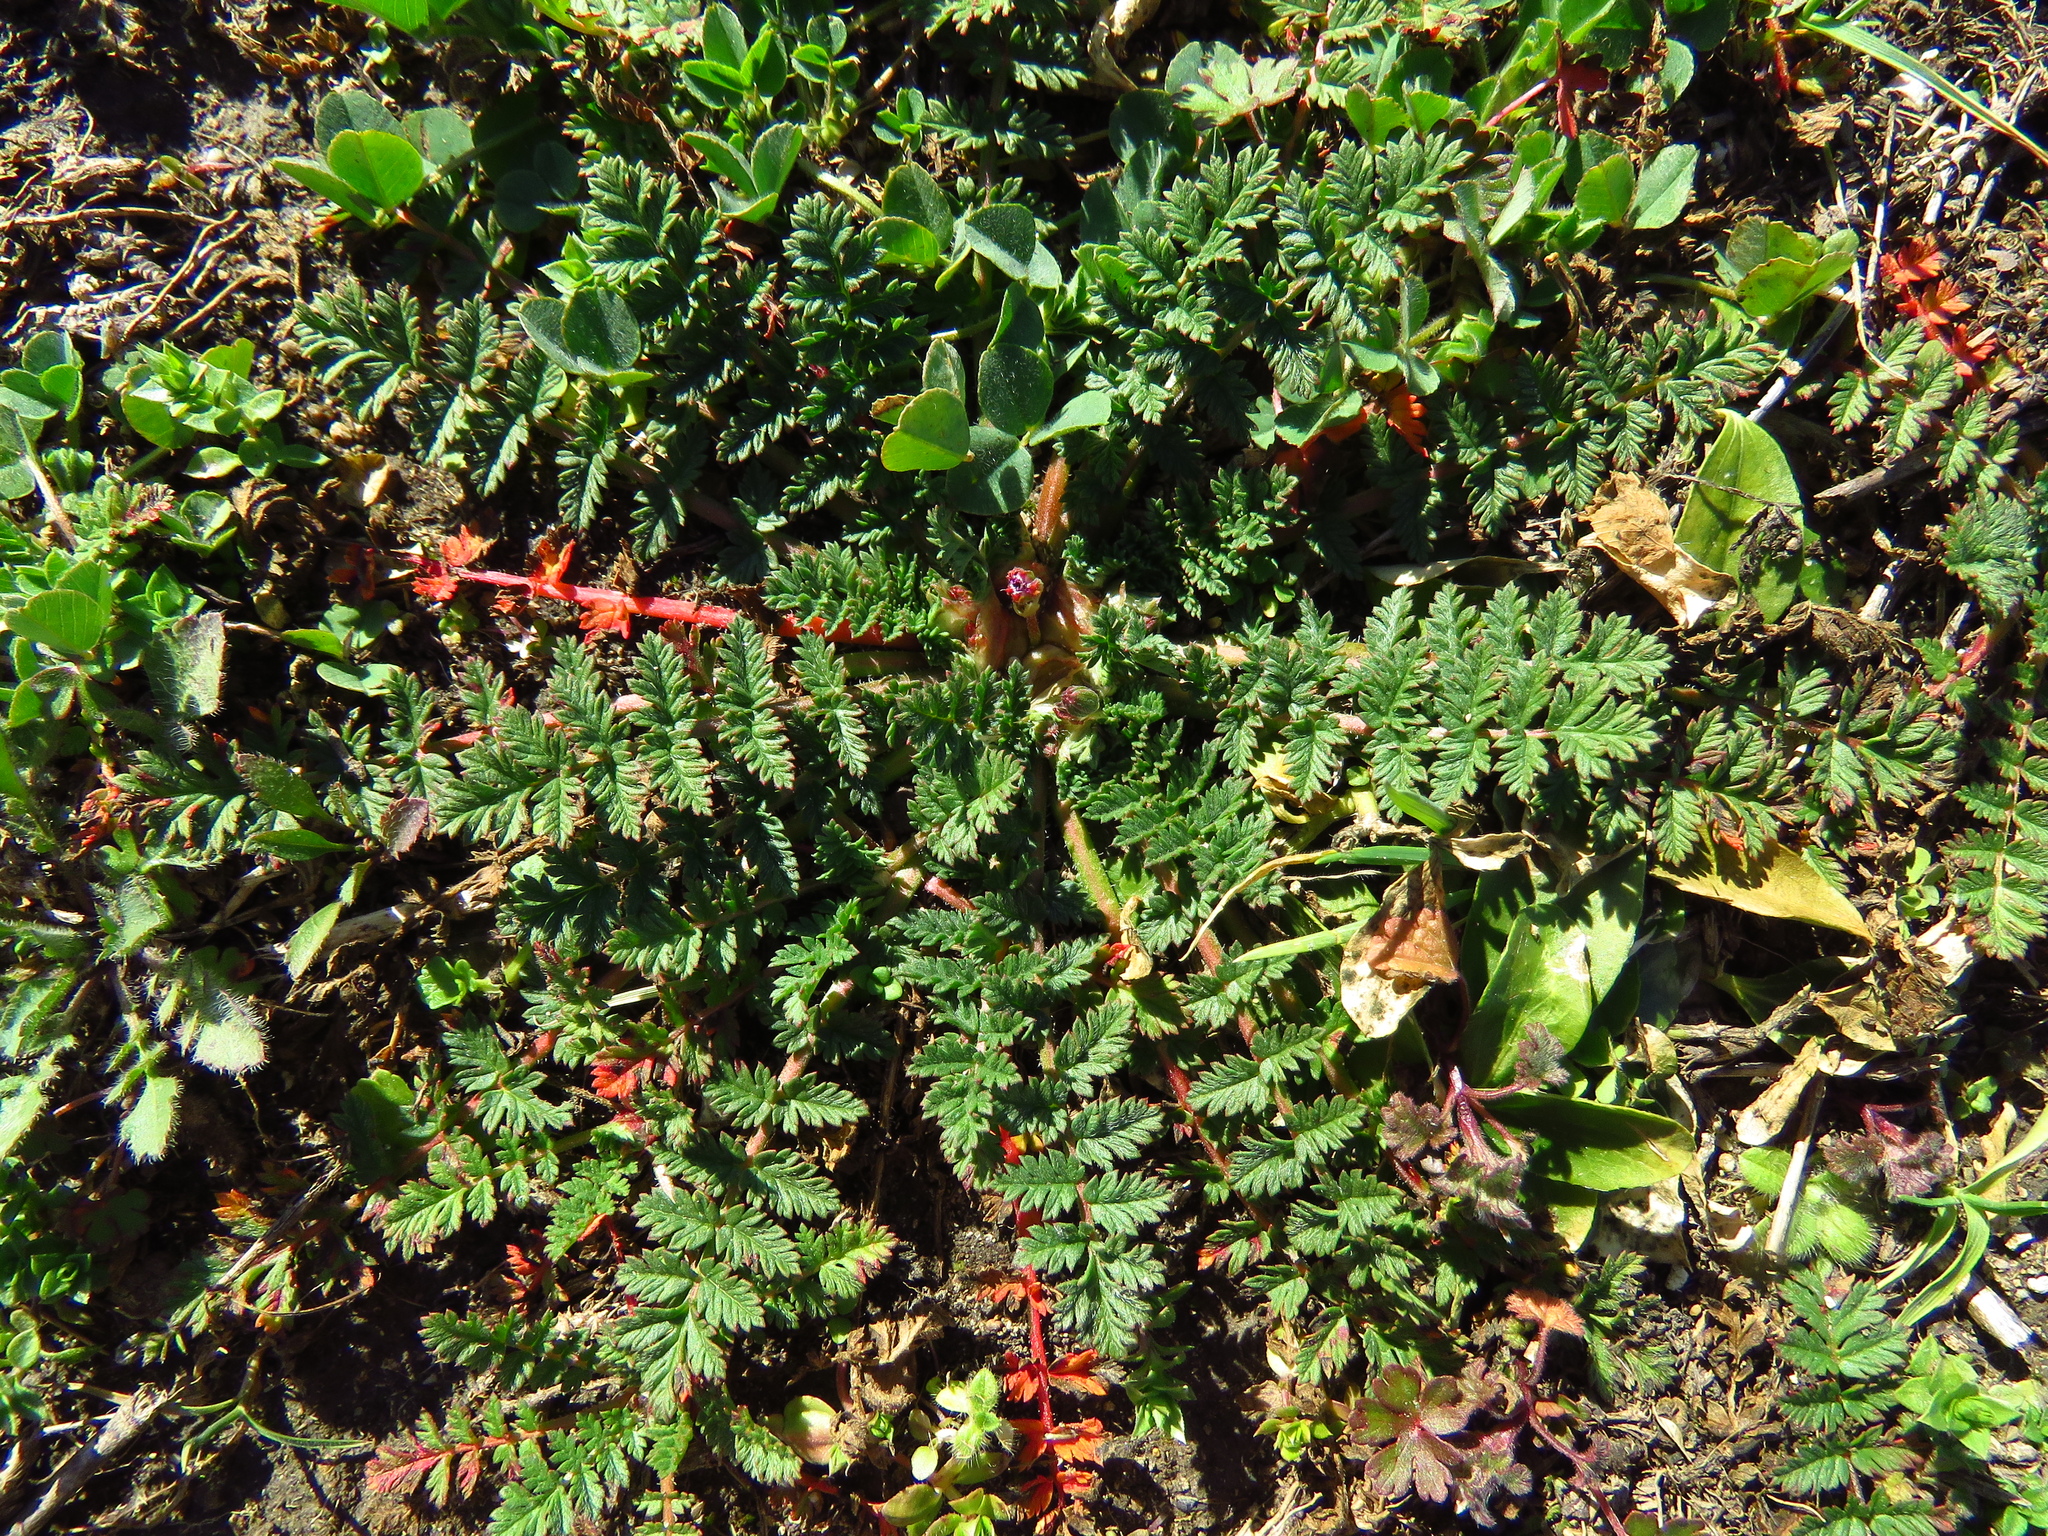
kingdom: Plantae
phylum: Tracheophyta
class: Magnoliopsida
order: Geraniales
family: Geraniaceae
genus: Erodium
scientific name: Erodium cicutarium
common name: Common stork's-bill
